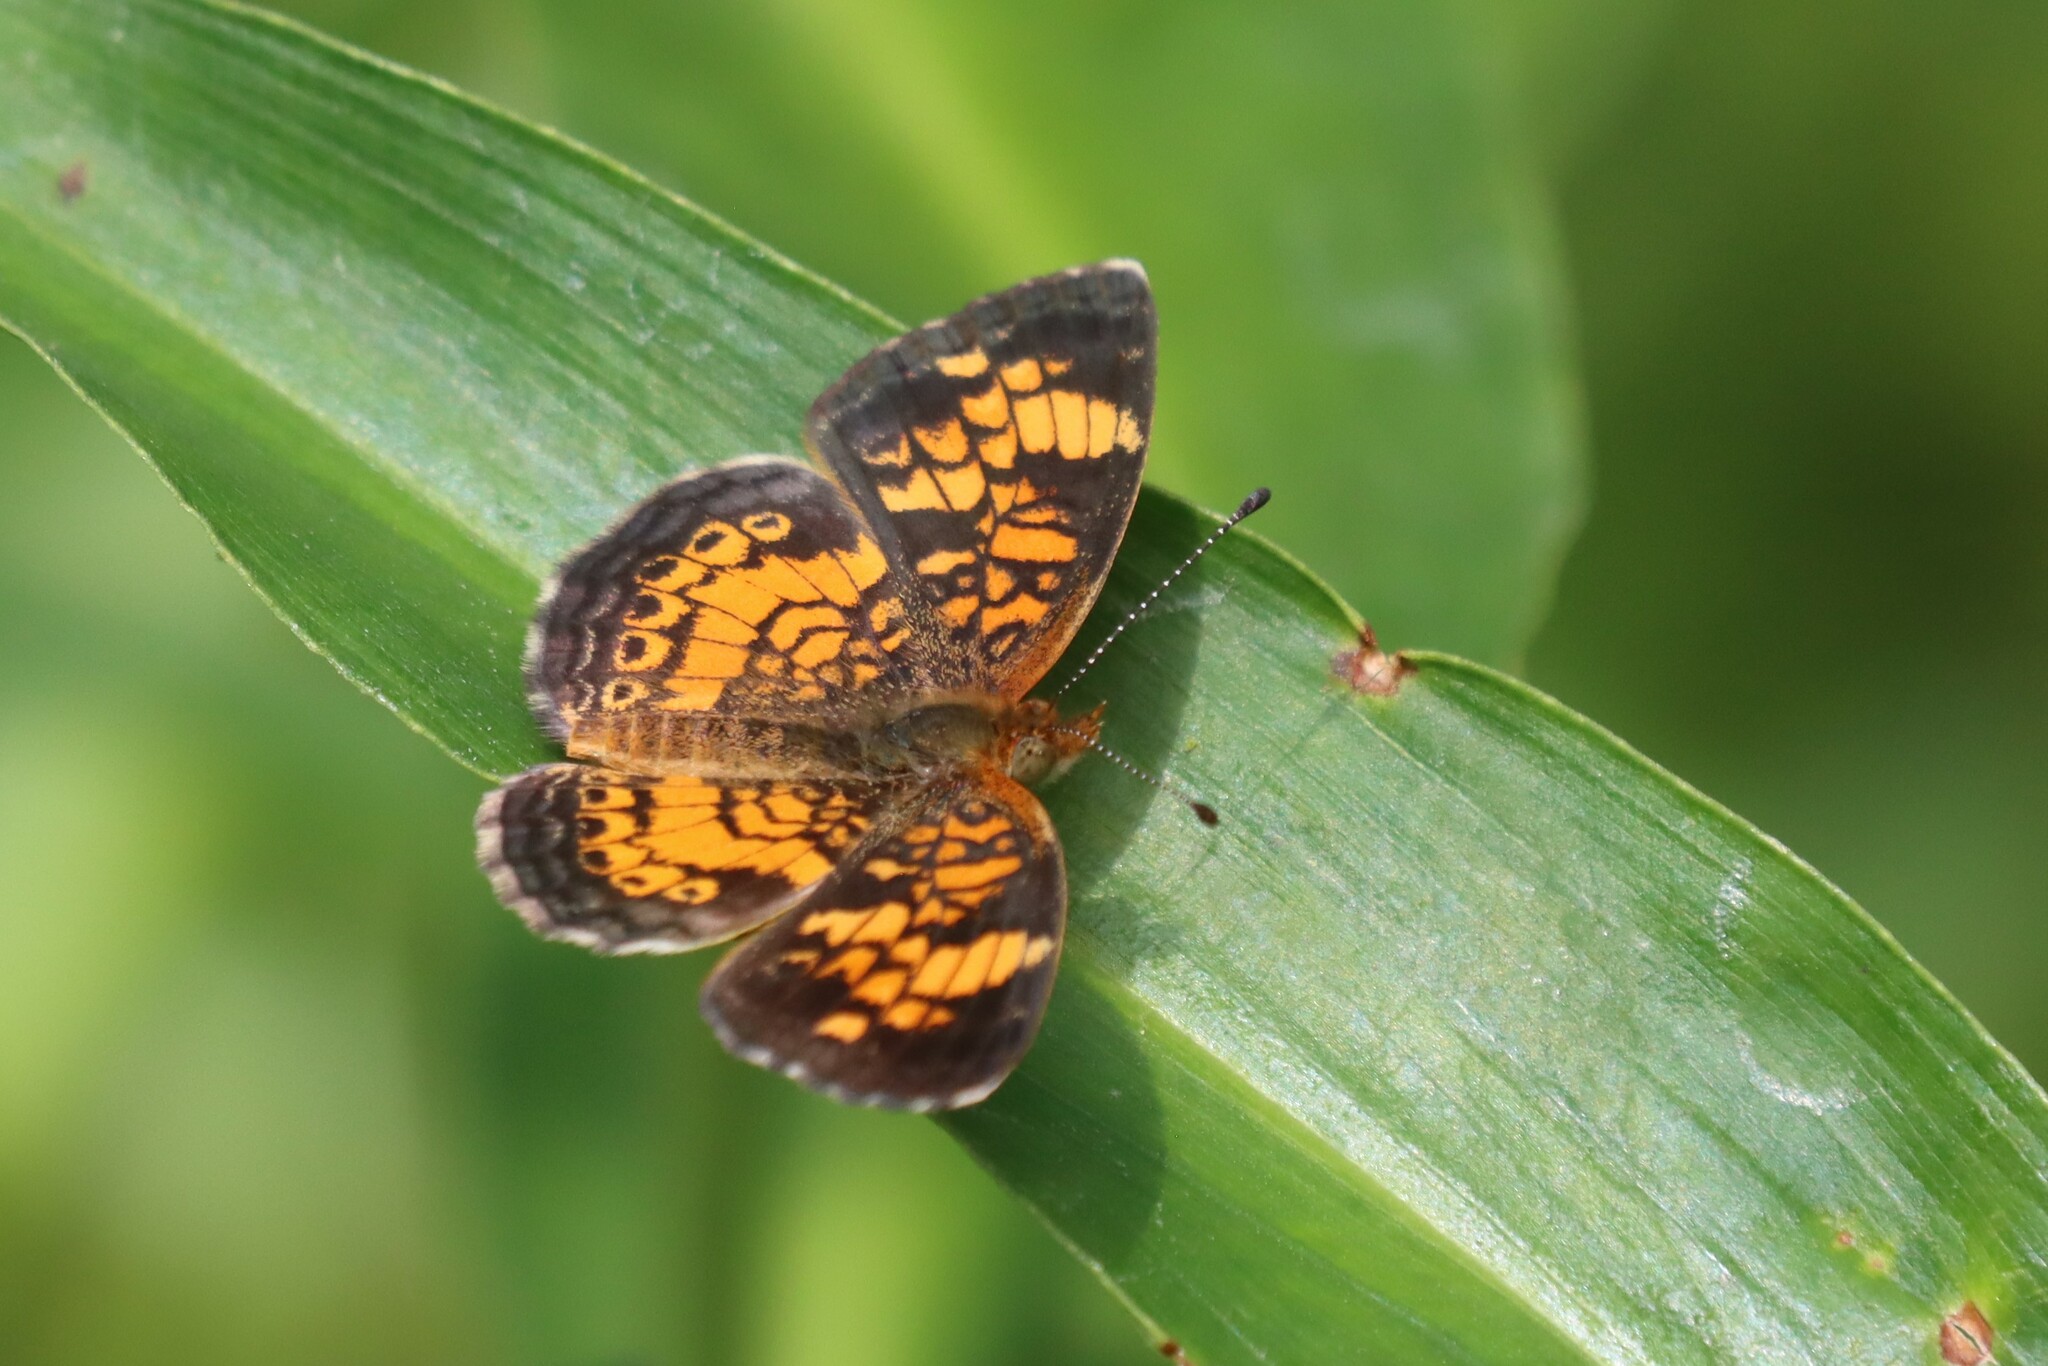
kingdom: Animalia
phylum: Arthropoda
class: Insecta
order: Lepidoptera
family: Nymphalidae
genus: Phyciodes
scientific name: Phyciodes tharos
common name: Pearl crescent
